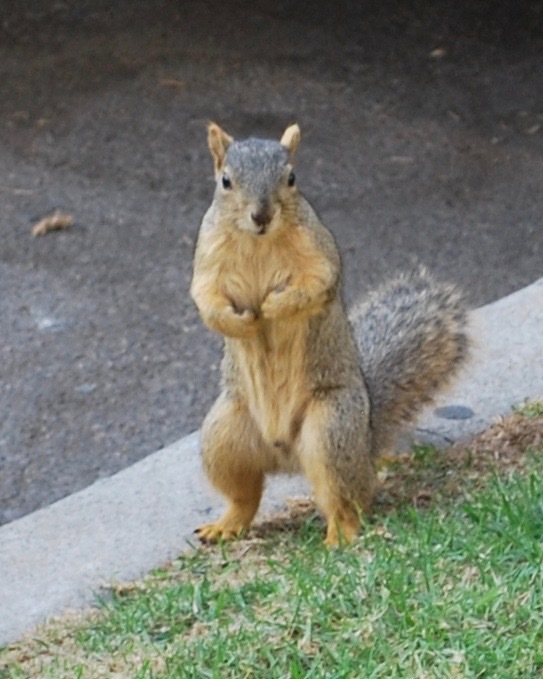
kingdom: Animalia
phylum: Chordata
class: Mammalia
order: Rodentia
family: Sciuridae
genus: Sciurus
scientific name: Sciurus niger
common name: Fox squirrel
